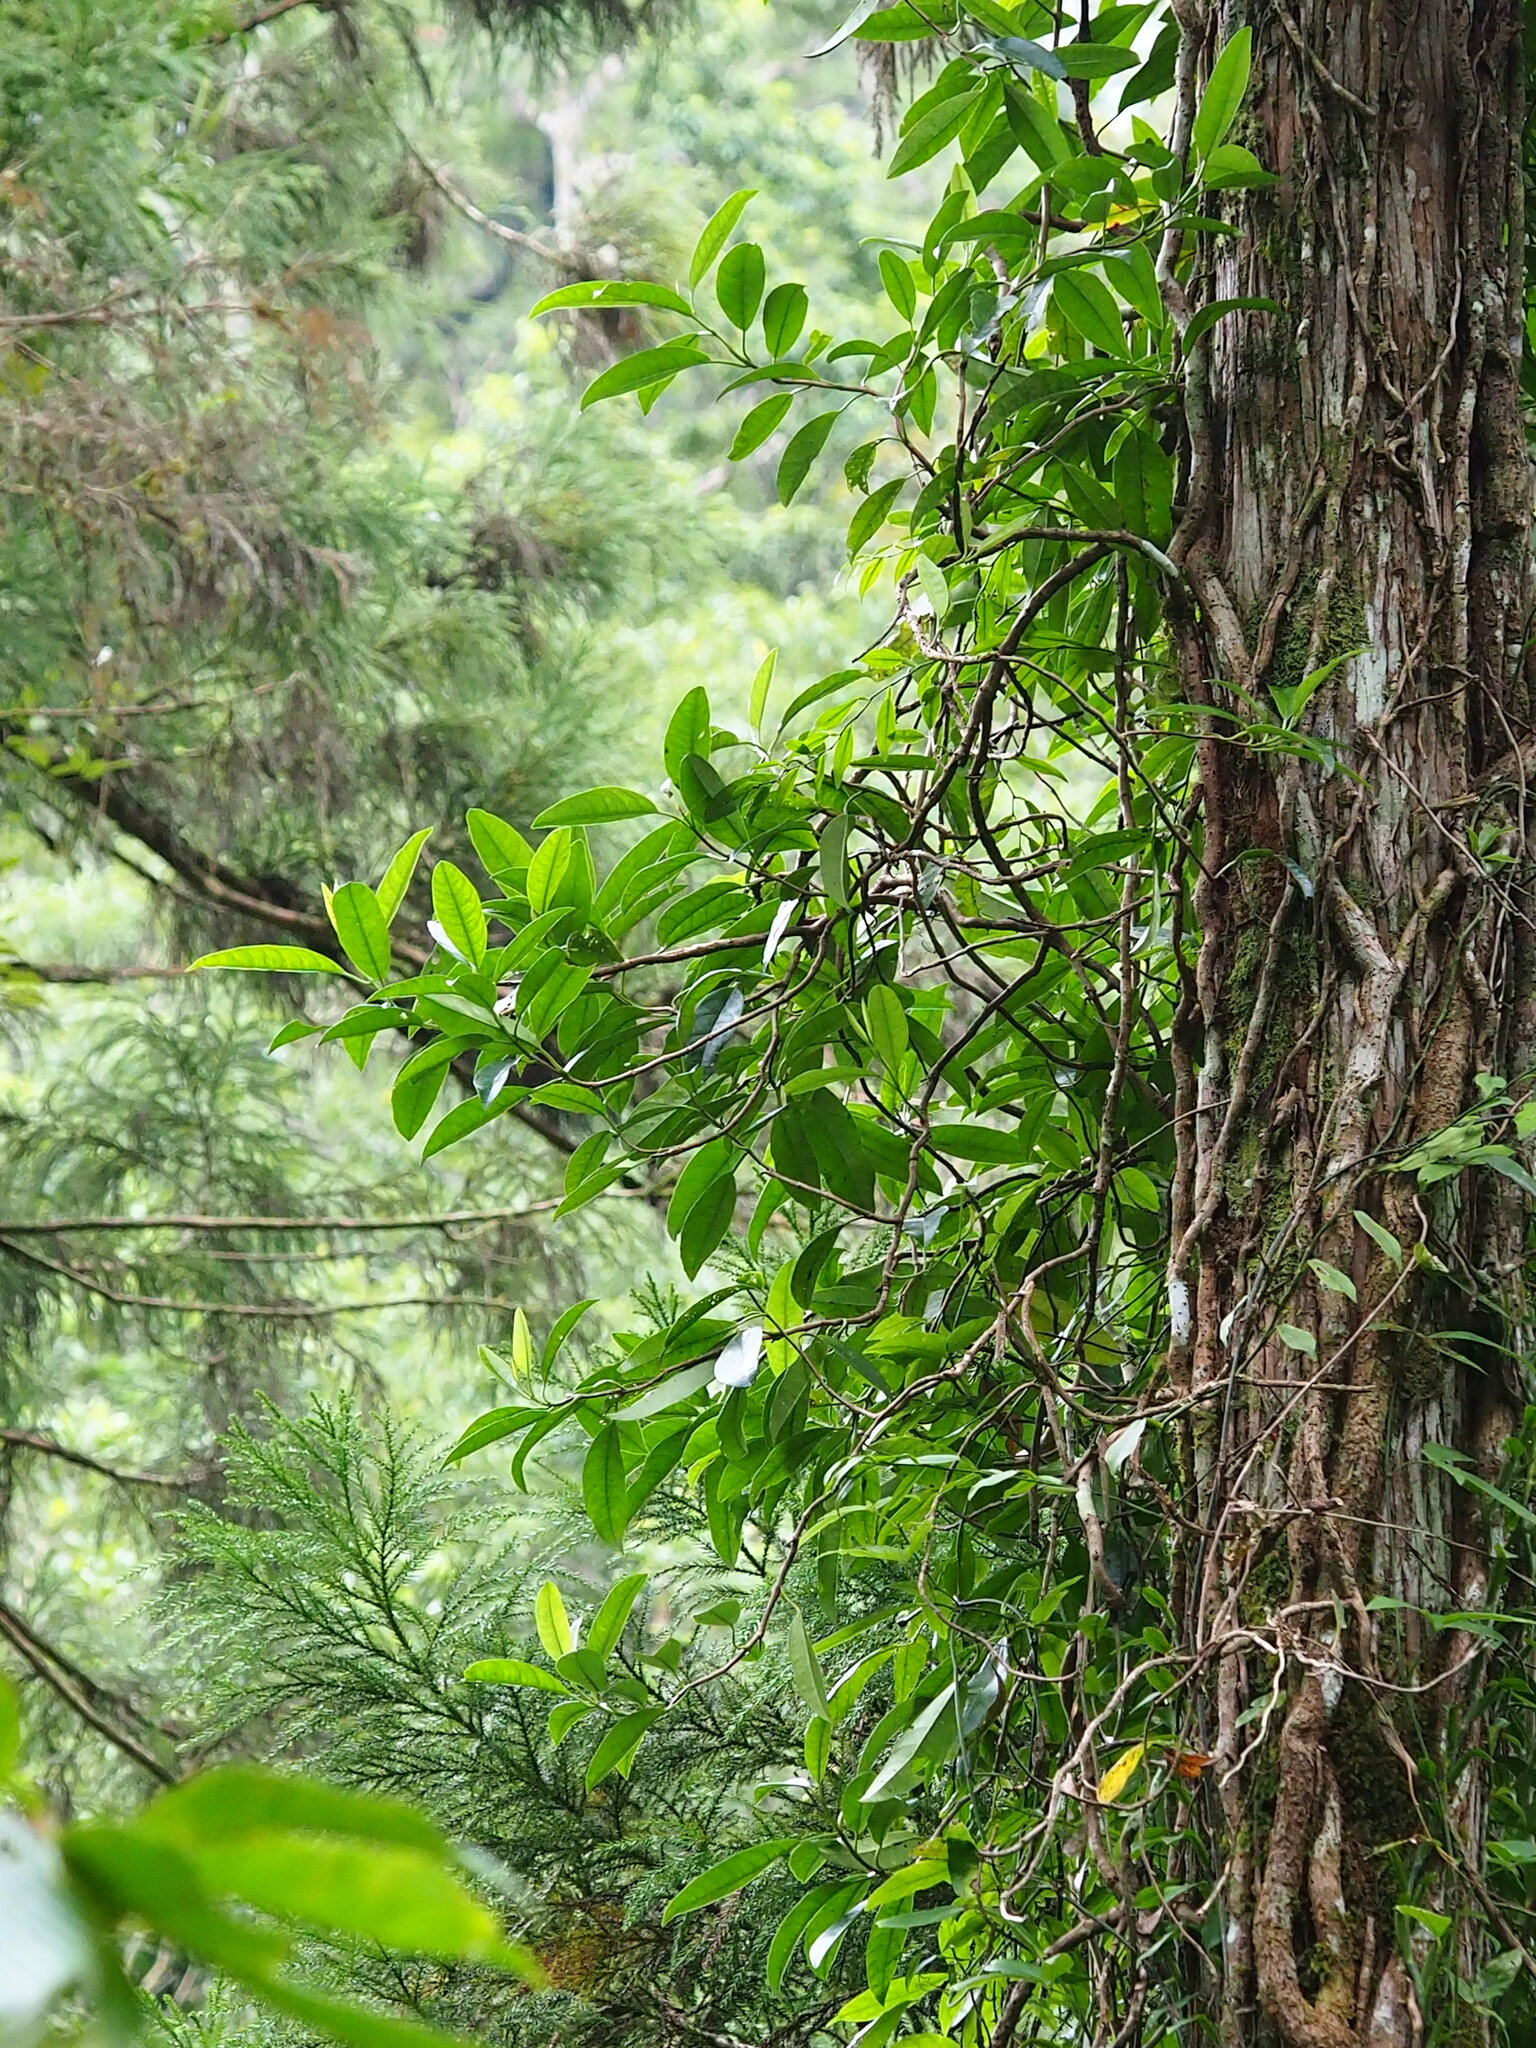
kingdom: Plantae
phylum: Tracheophyta
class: Magnoliopsida
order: Cornales
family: Hydrangeaceae
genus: Hydrangea
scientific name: Hydrangea viburnoides
